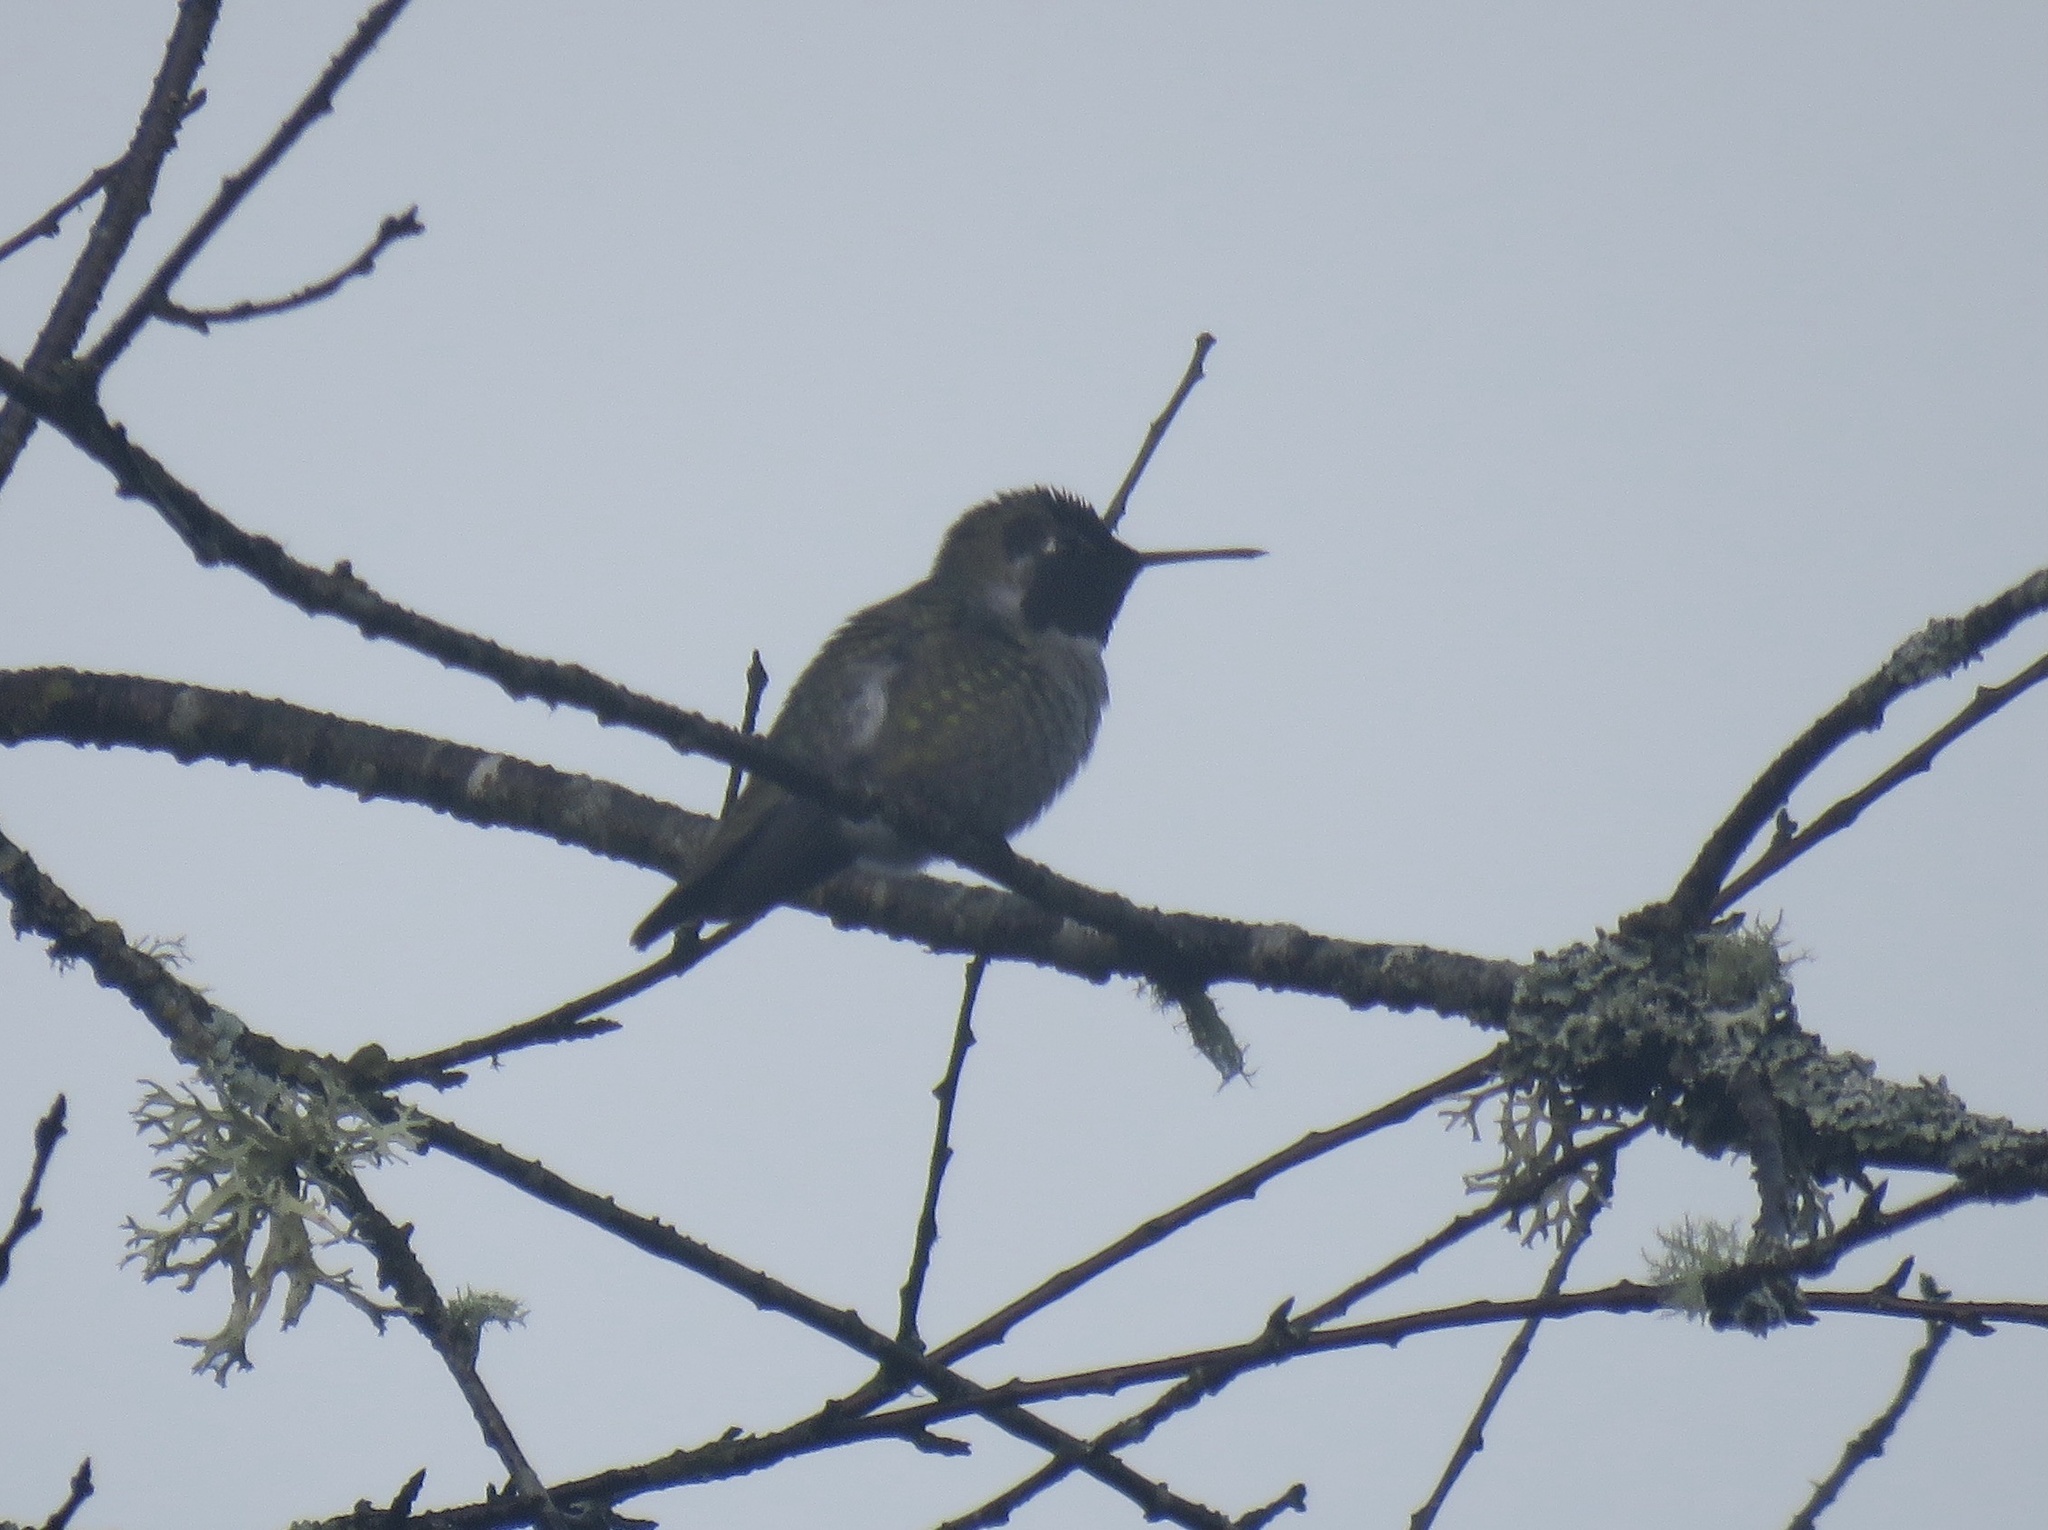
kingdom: Animalia
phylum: Chordata
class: Aves
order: Apodiformes
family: Trochilidae
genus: Calypte
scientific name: Calypte anna
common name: Anna's hummingbird
